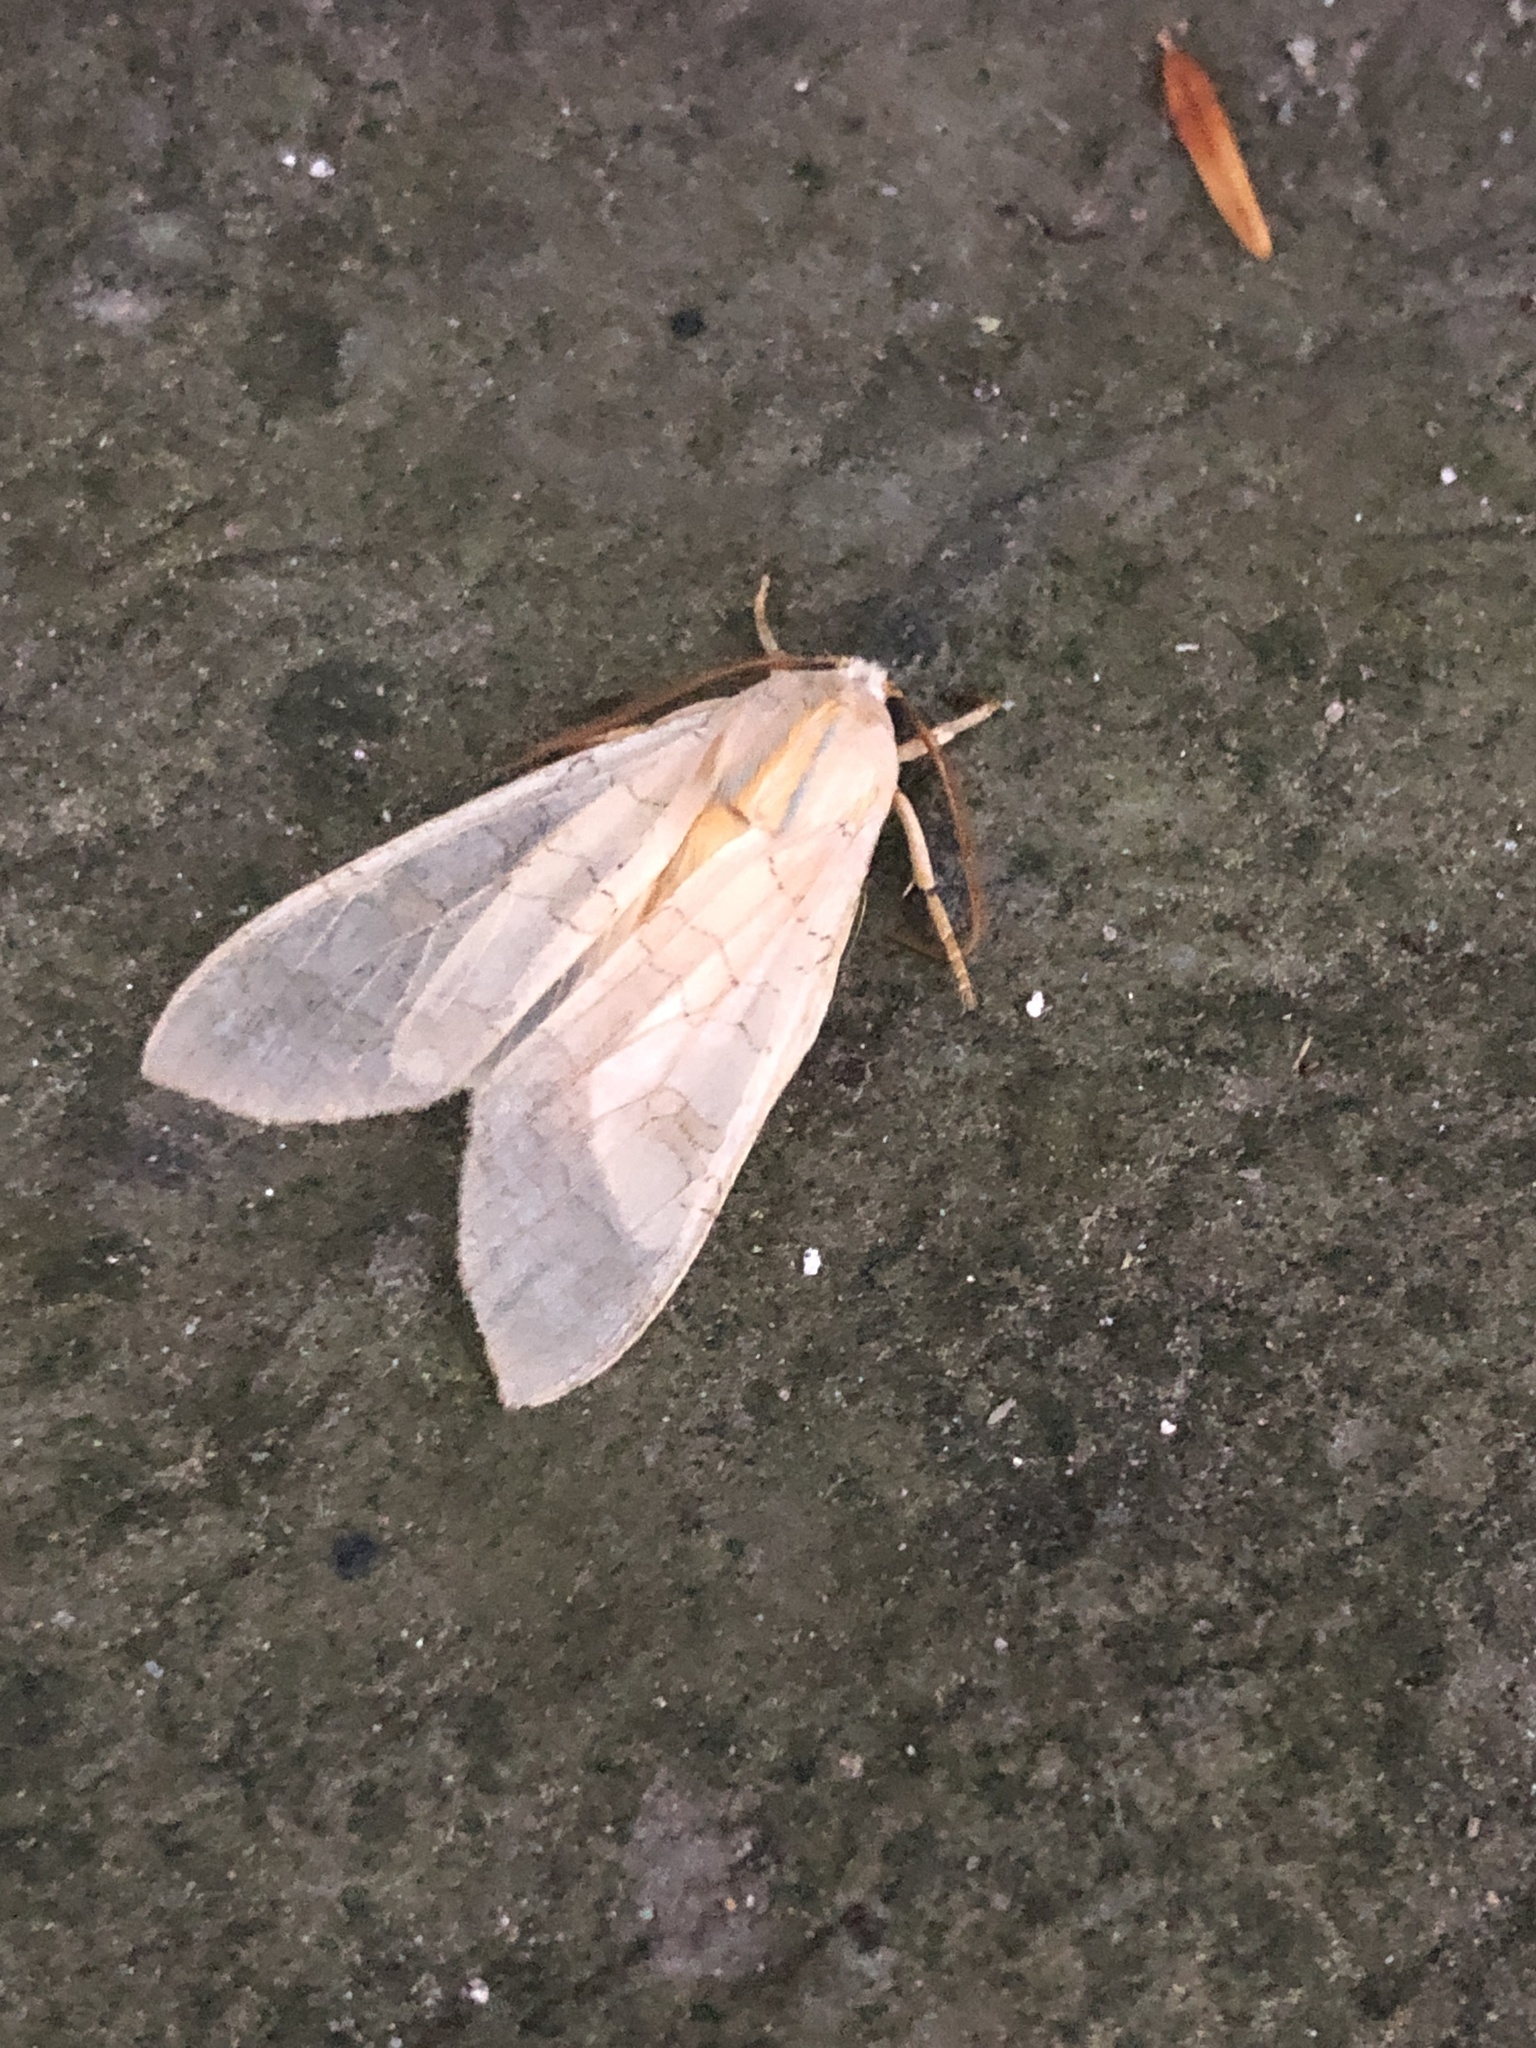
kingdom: Animalia
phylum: Arthropoda
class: Insecta
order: Lepidoptera
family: Erebidae
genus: Halysidota
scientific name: Halysidota tessellaris
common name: Banded tussock moth
